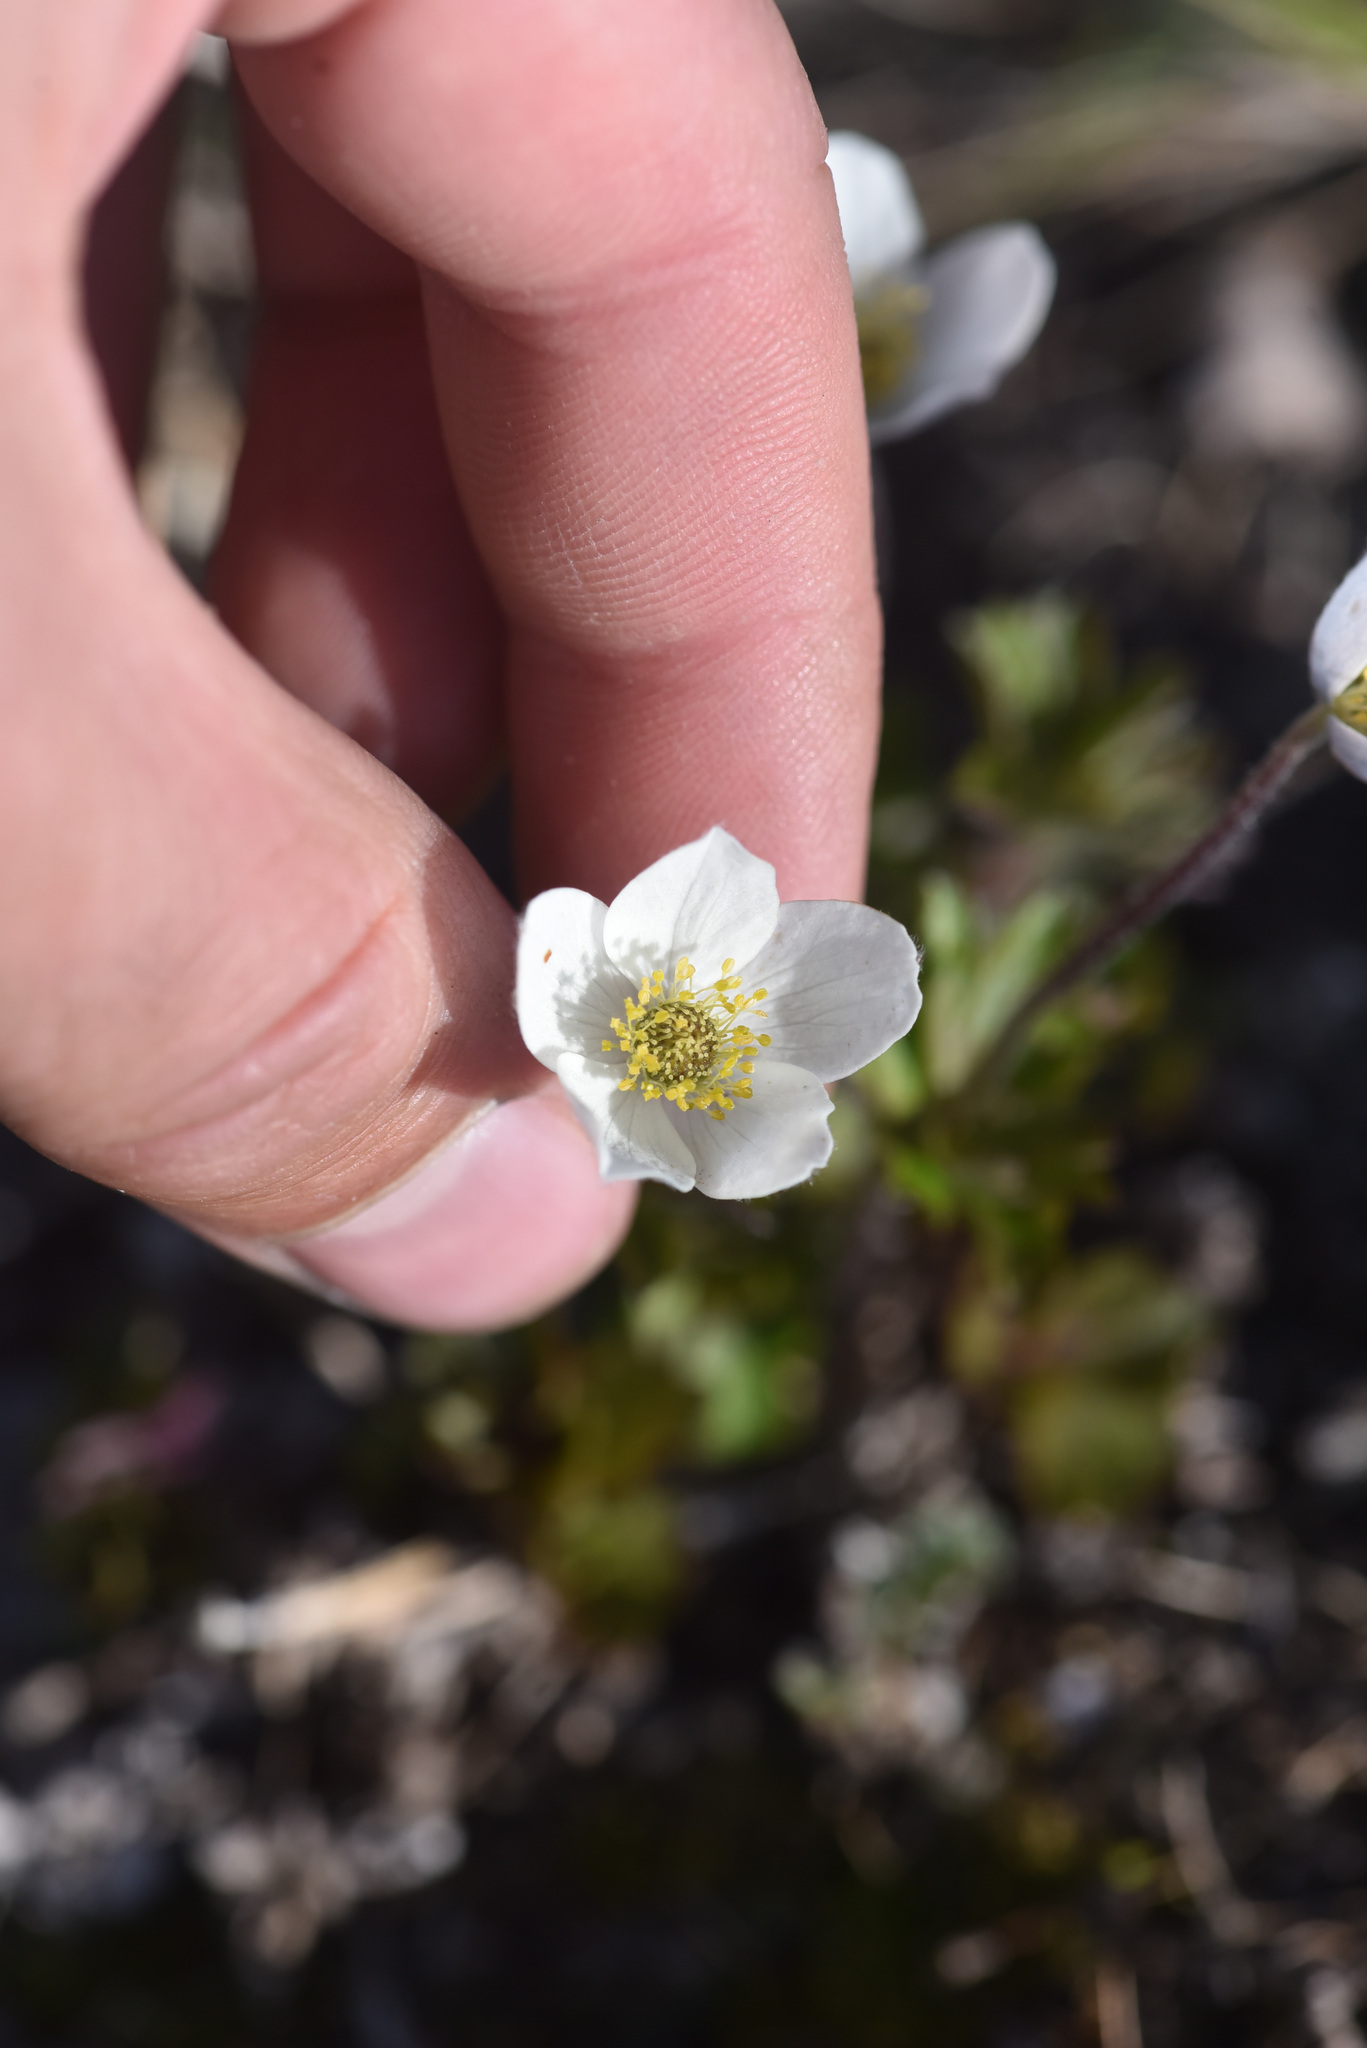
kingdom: Plantae
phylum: Tracheophyta
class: Magnoliopsida
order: Ranunculales
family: Ranunculaceae
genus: Anemone
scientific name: Anemone parviflora
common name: Northern anemone
